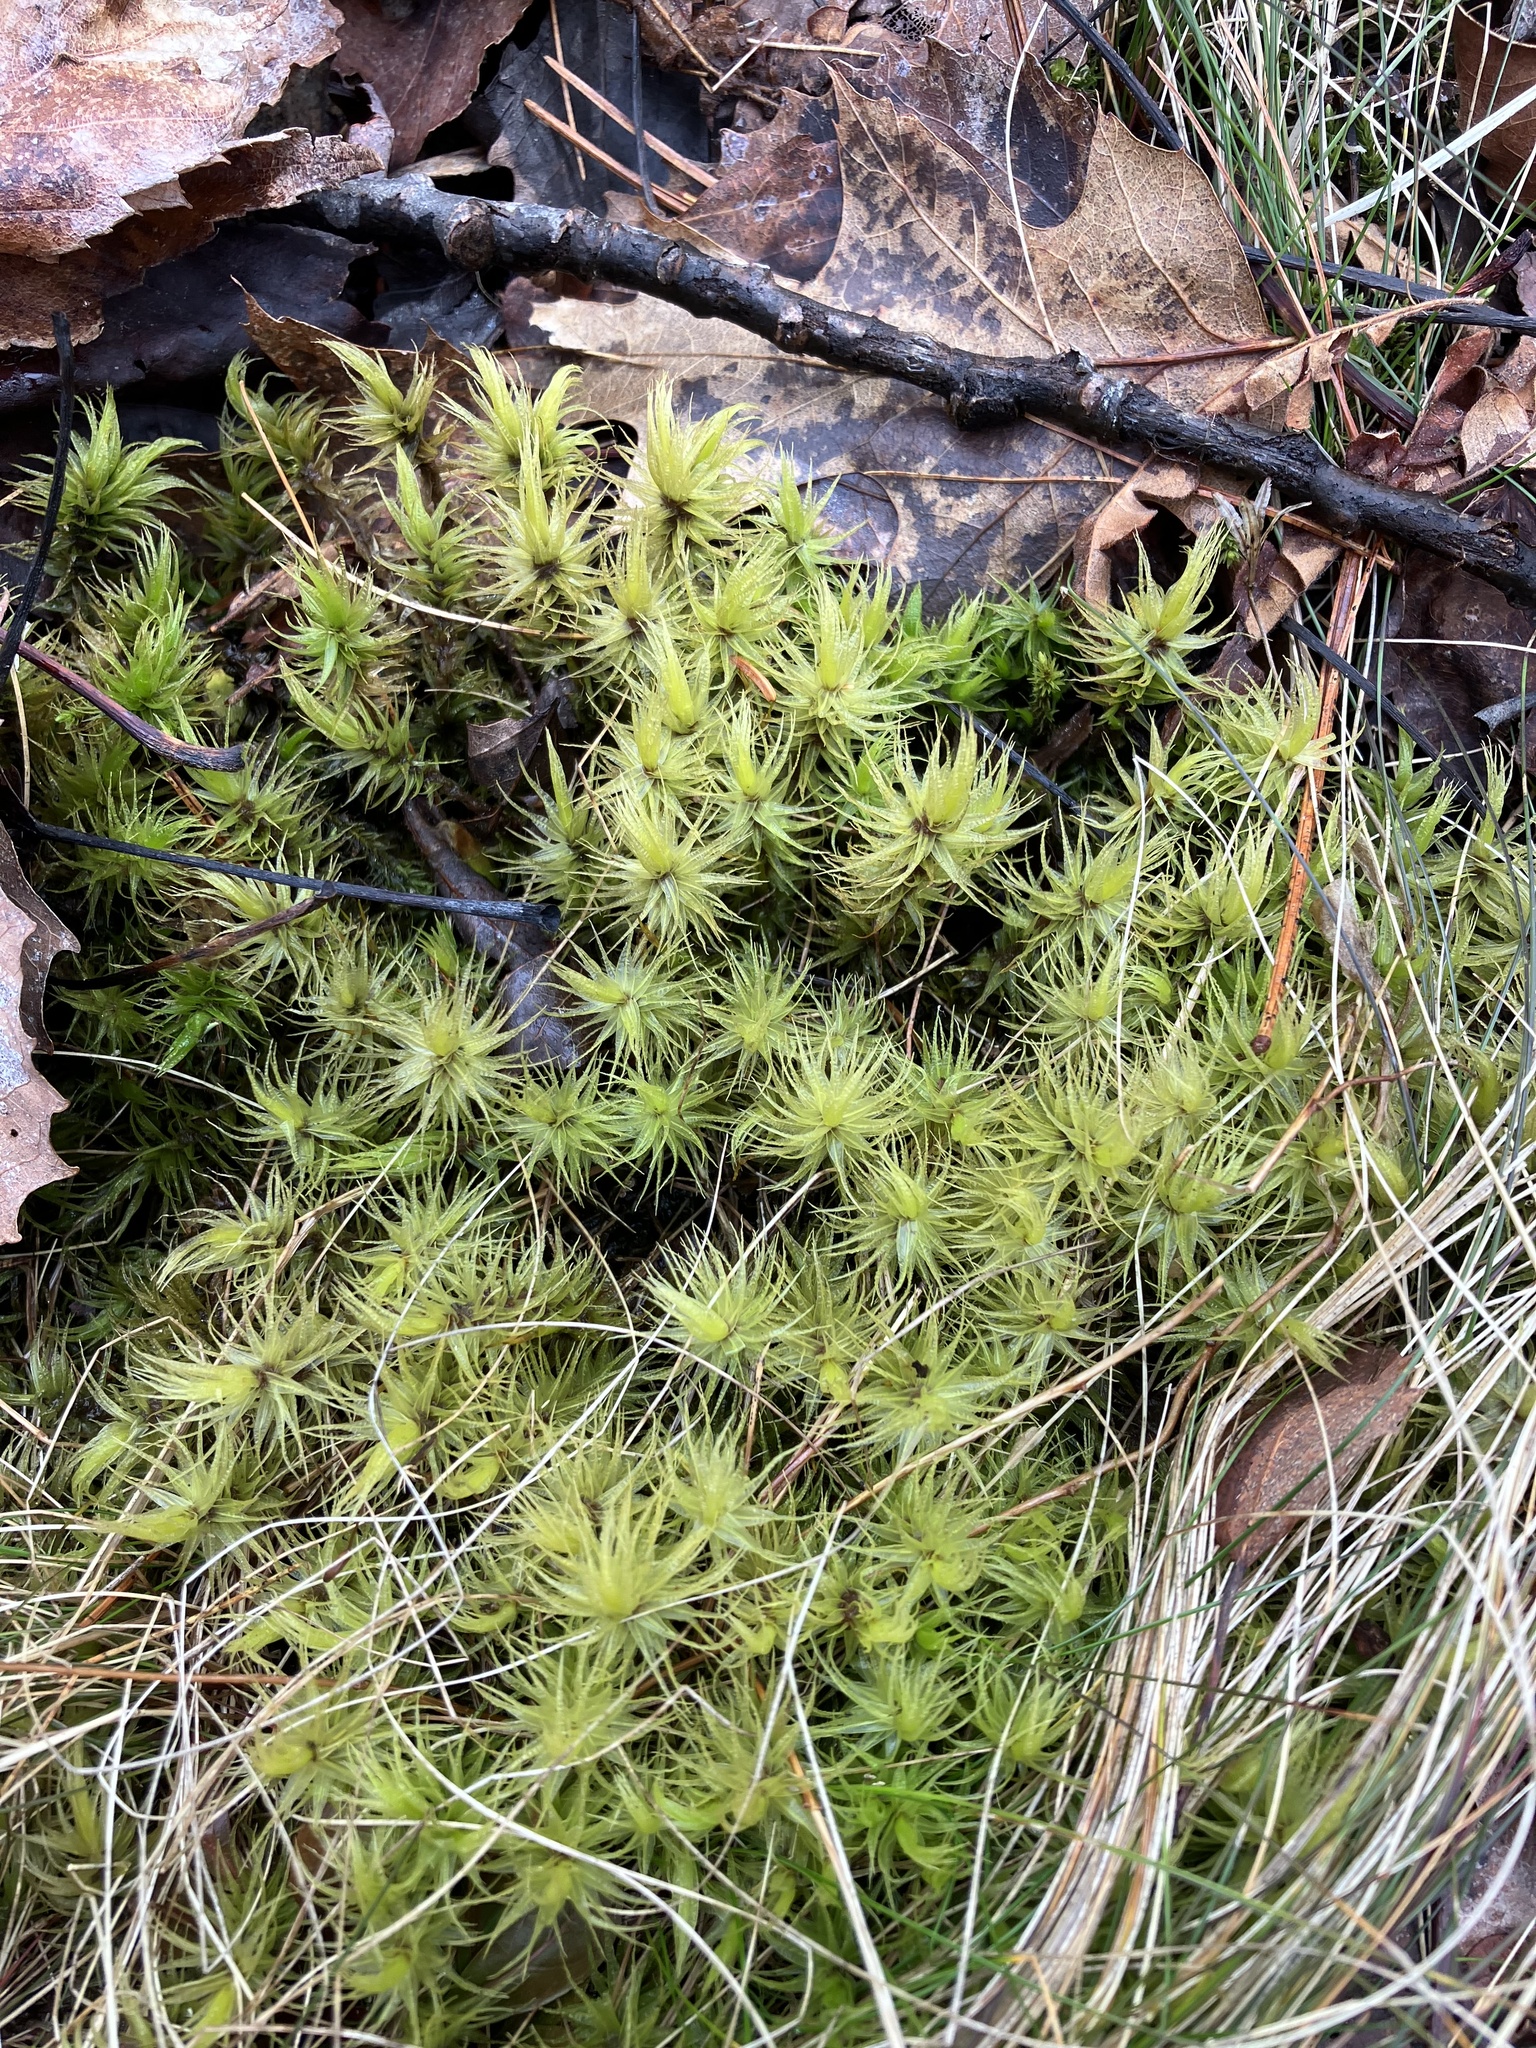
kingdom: Plantae
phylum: Bryophyta
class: Bryopsida
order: Dicranales
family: Dicranaceae
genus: Dicranum
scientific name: Dicranum polysetum
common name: Rugose fork-moss
